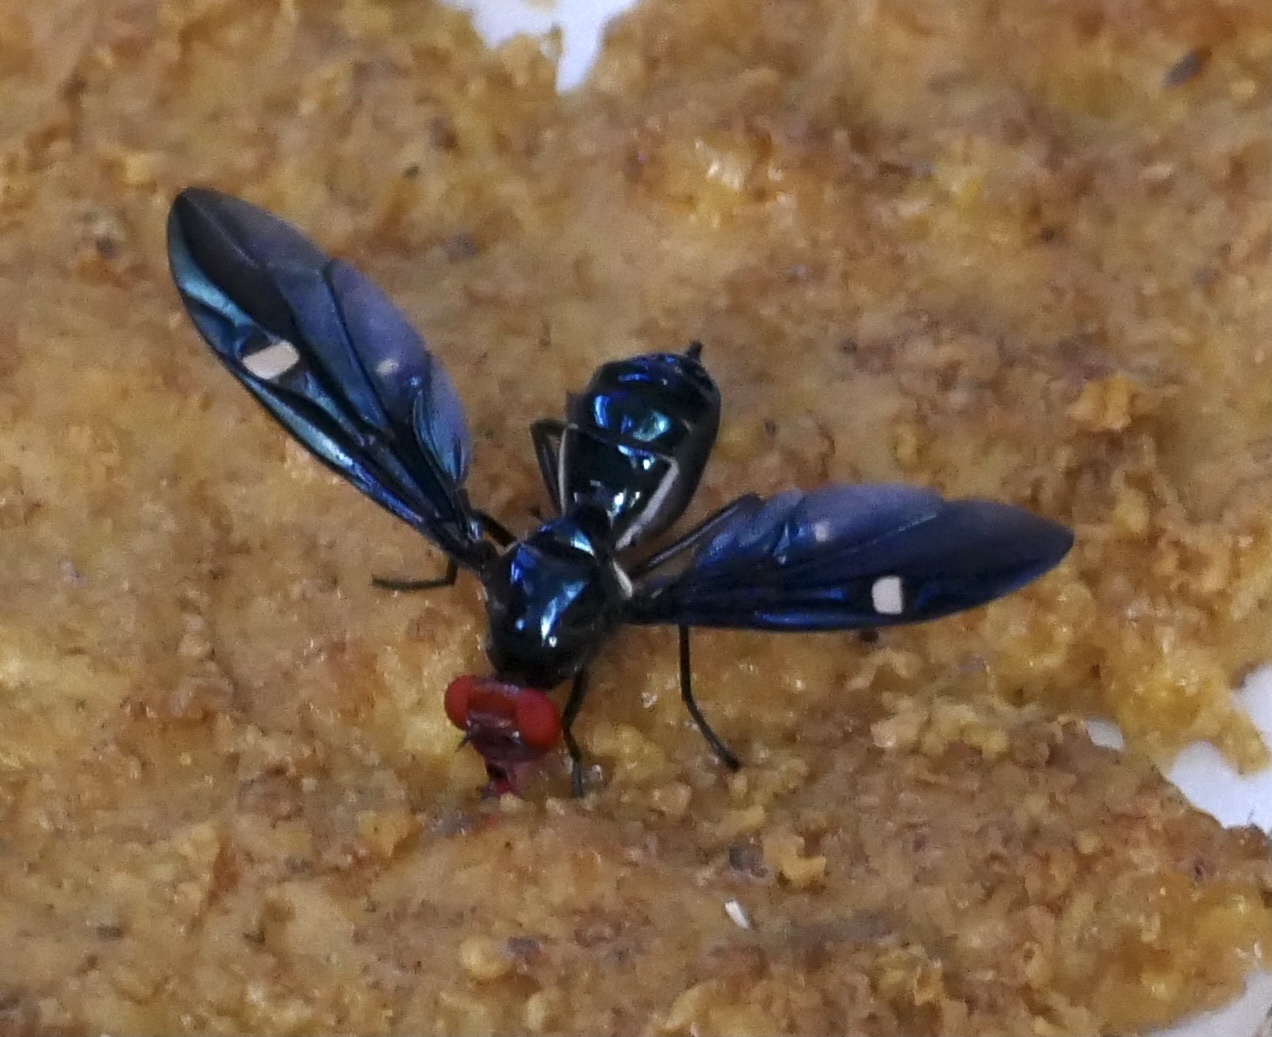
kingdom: Animalia
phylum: Arthropoda
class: Insecta
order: Diptera
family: Platystomatidae
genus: Clitodoca
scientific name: Clitodoca fenestralis
